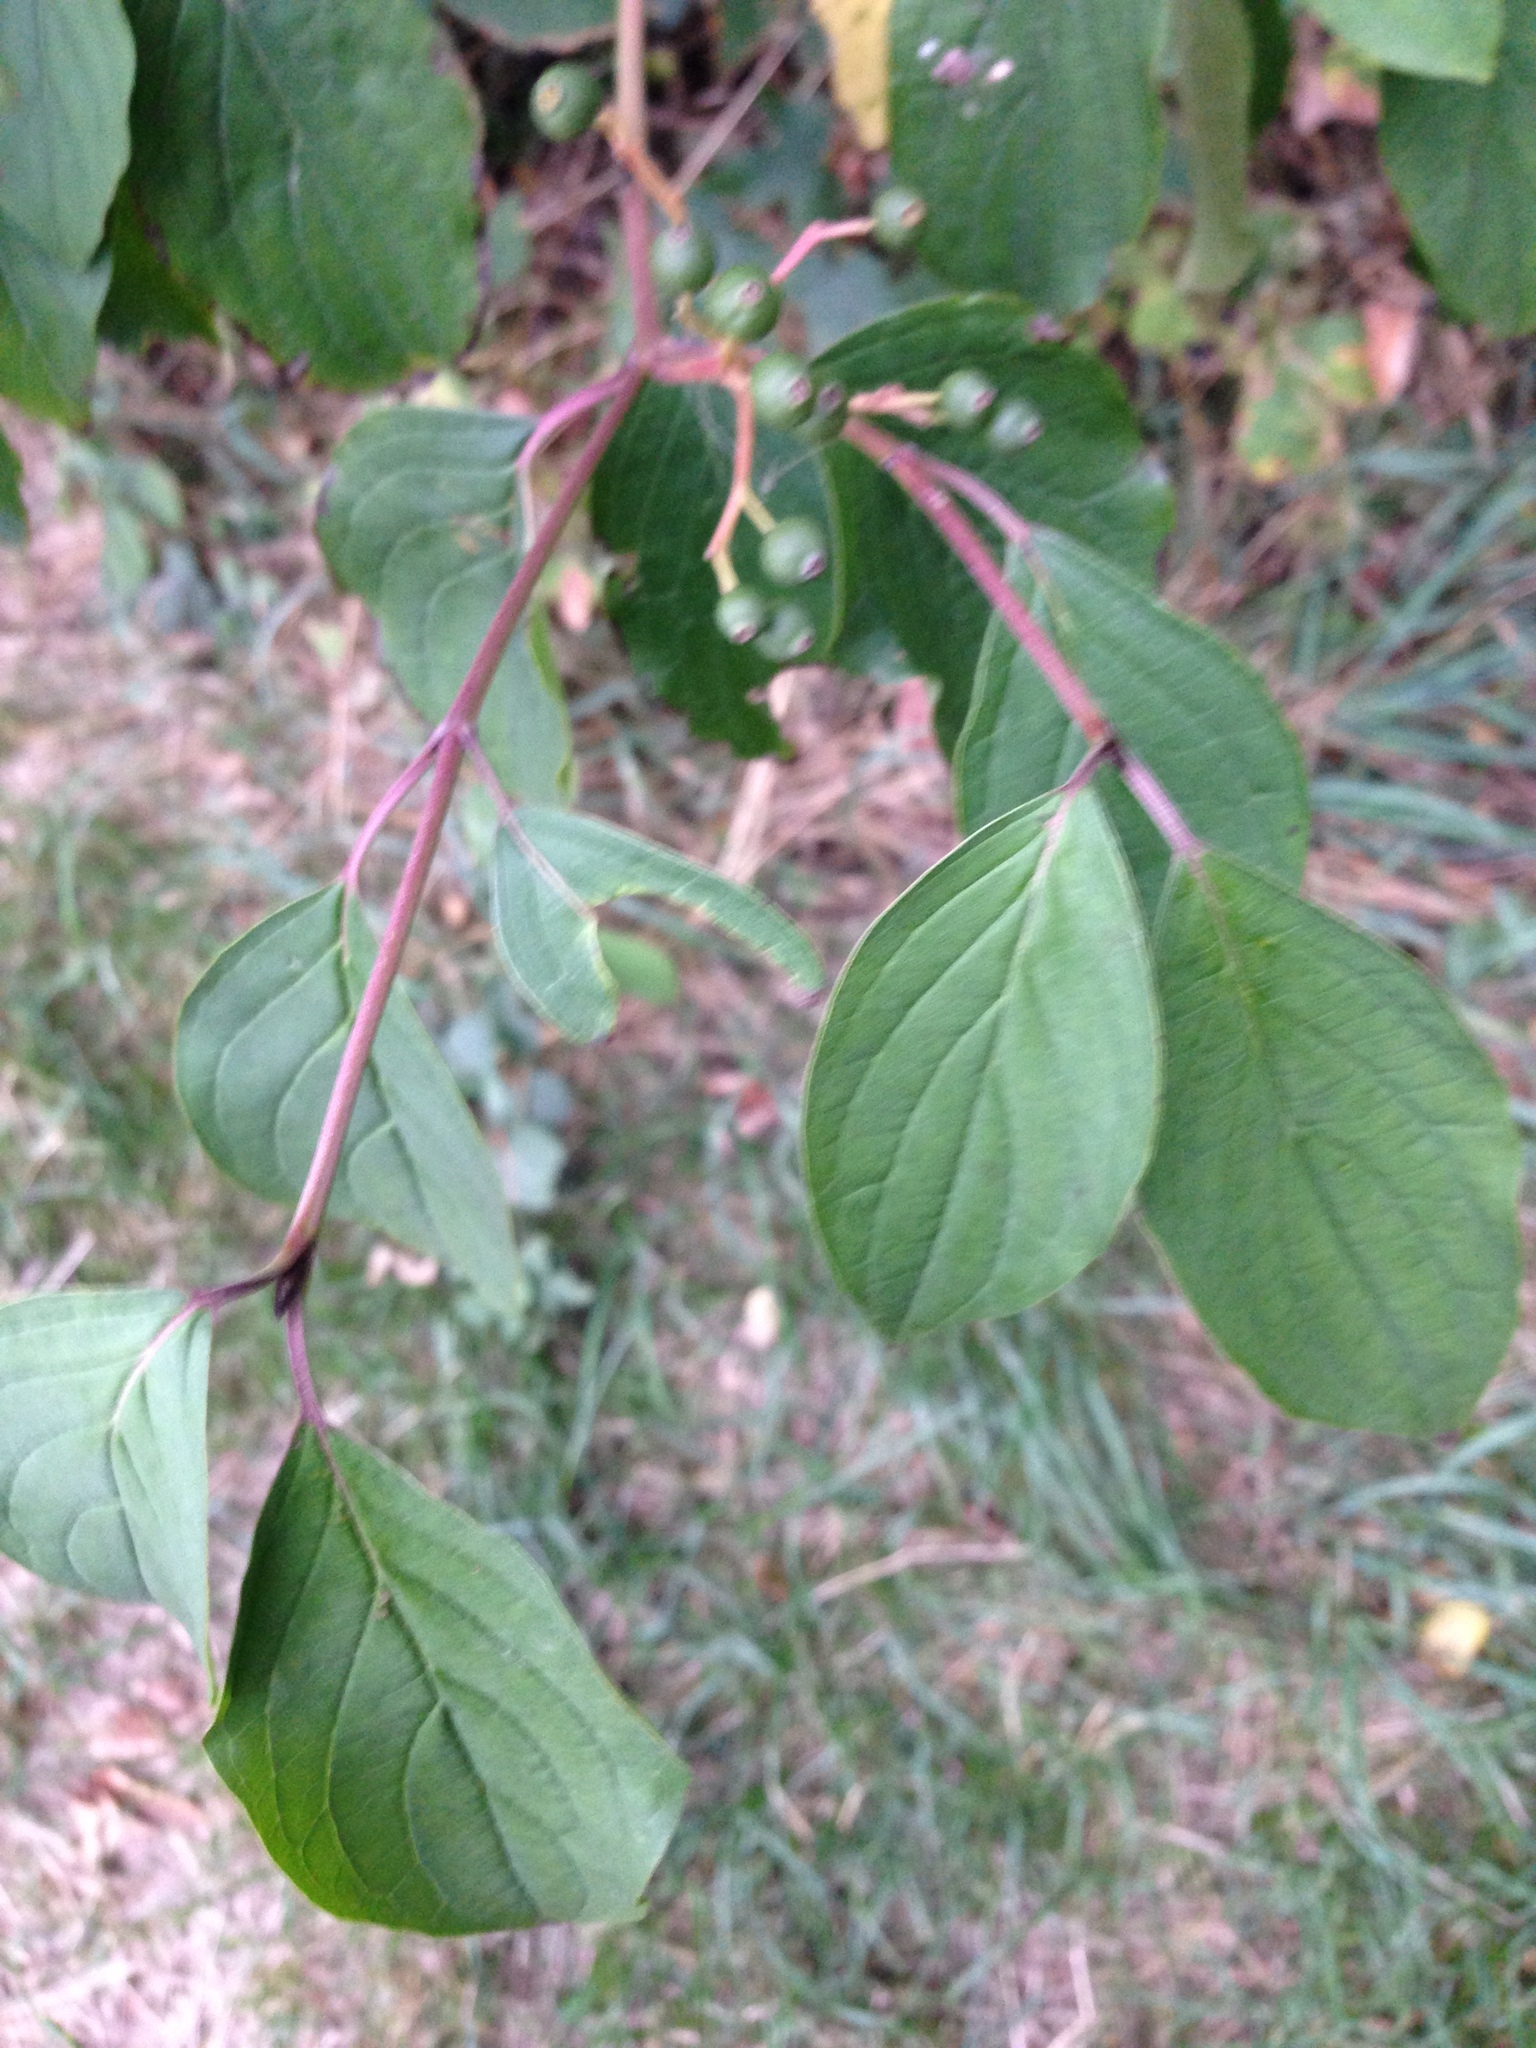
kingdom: Plantae
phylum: Tracheophyta
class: Magnoliopsida
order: Cornales
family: Cornaceae
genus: Cornus
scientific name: Cornus sanguinea
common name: Dogwood
